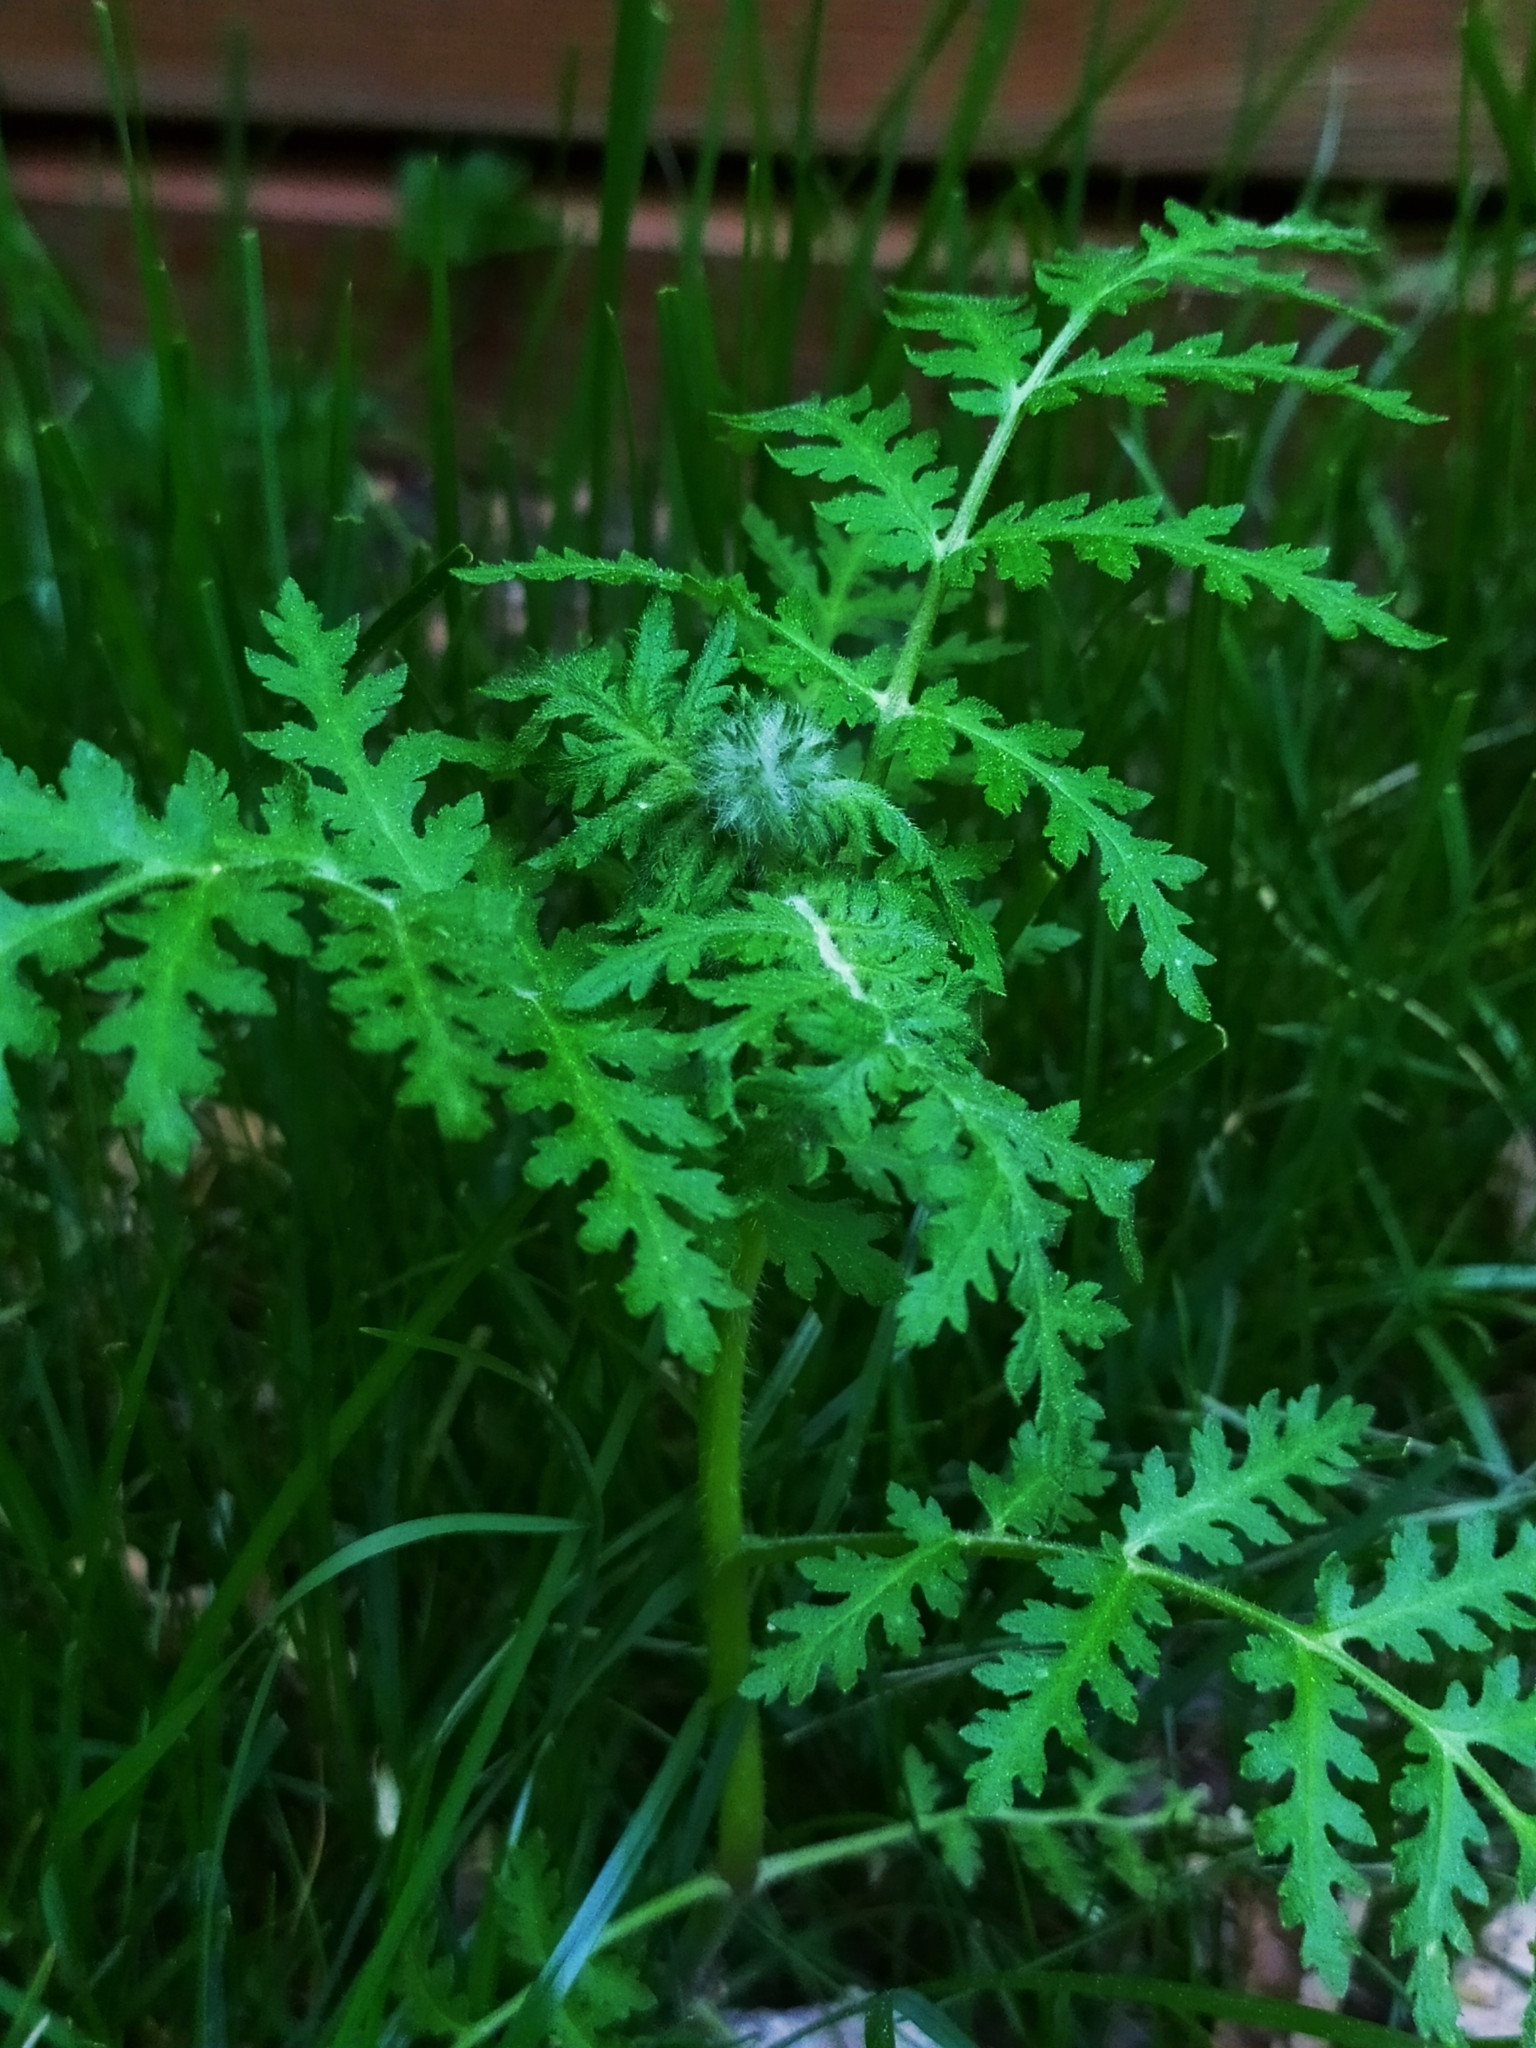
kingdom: Plantae
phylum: Tracheophyta
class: Magnoliopsida
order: Boraginales
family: Hydrophyllaceae
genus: Phacelia
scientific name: Phacelia tanacetifolia
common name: Phacelia
